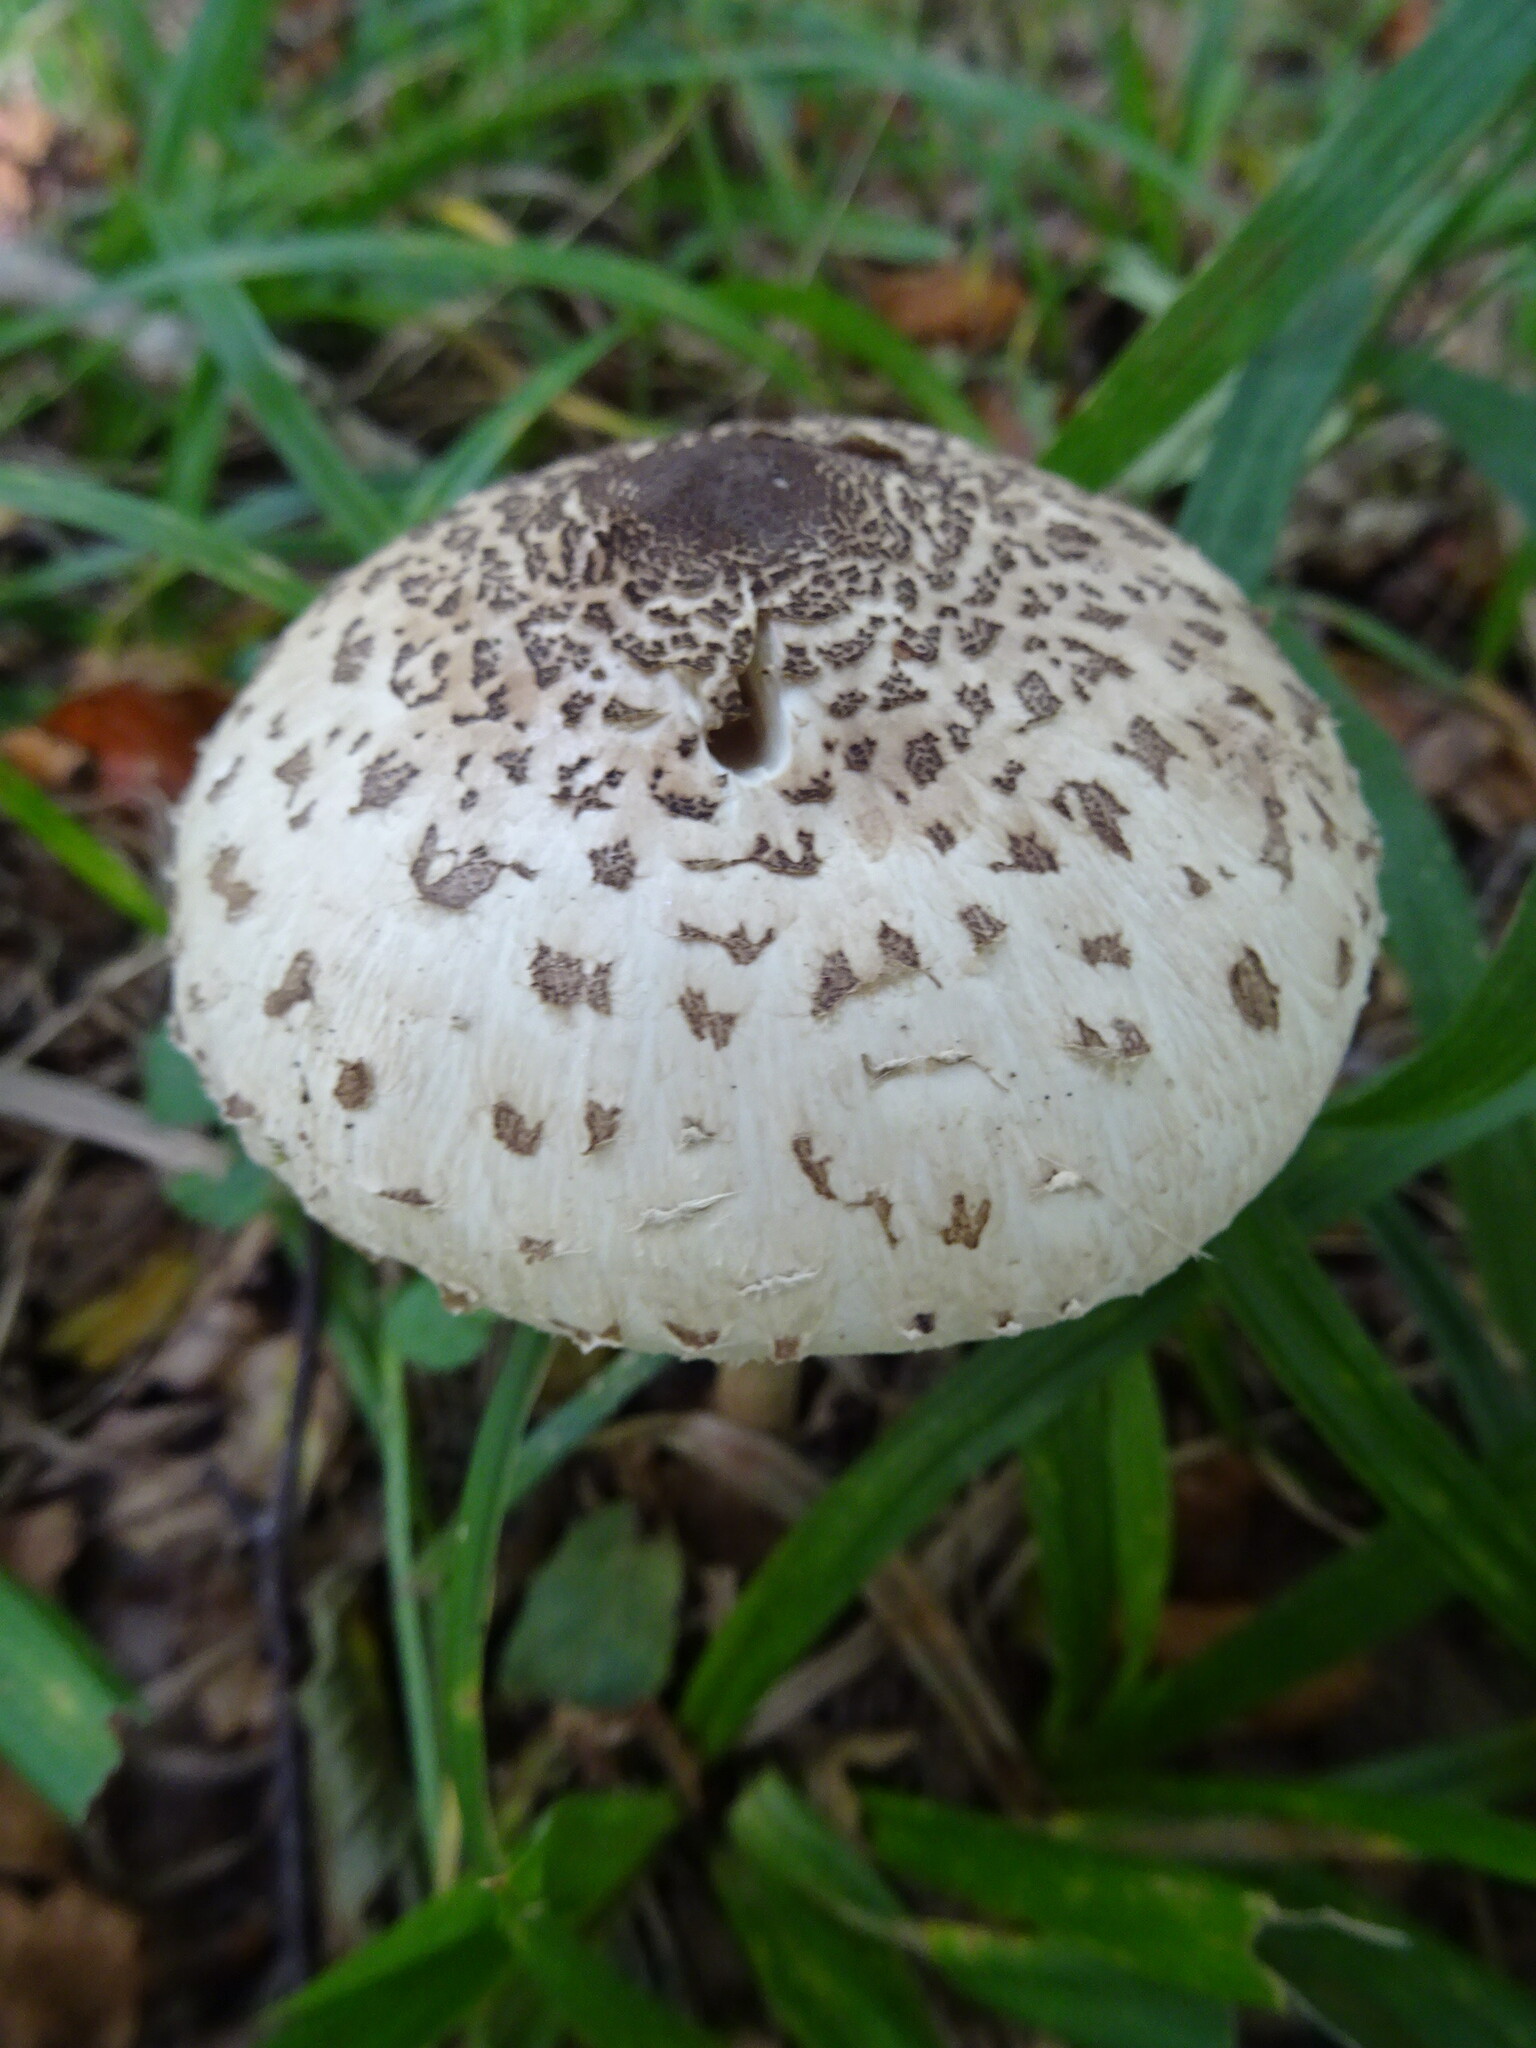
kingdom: Fungi
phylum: Basidiomycota
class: Agaricomycetes
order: Agaricales
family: Agaricaceae
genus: Macrolepiota
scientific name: Macrolepiota procera
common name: Parasol
